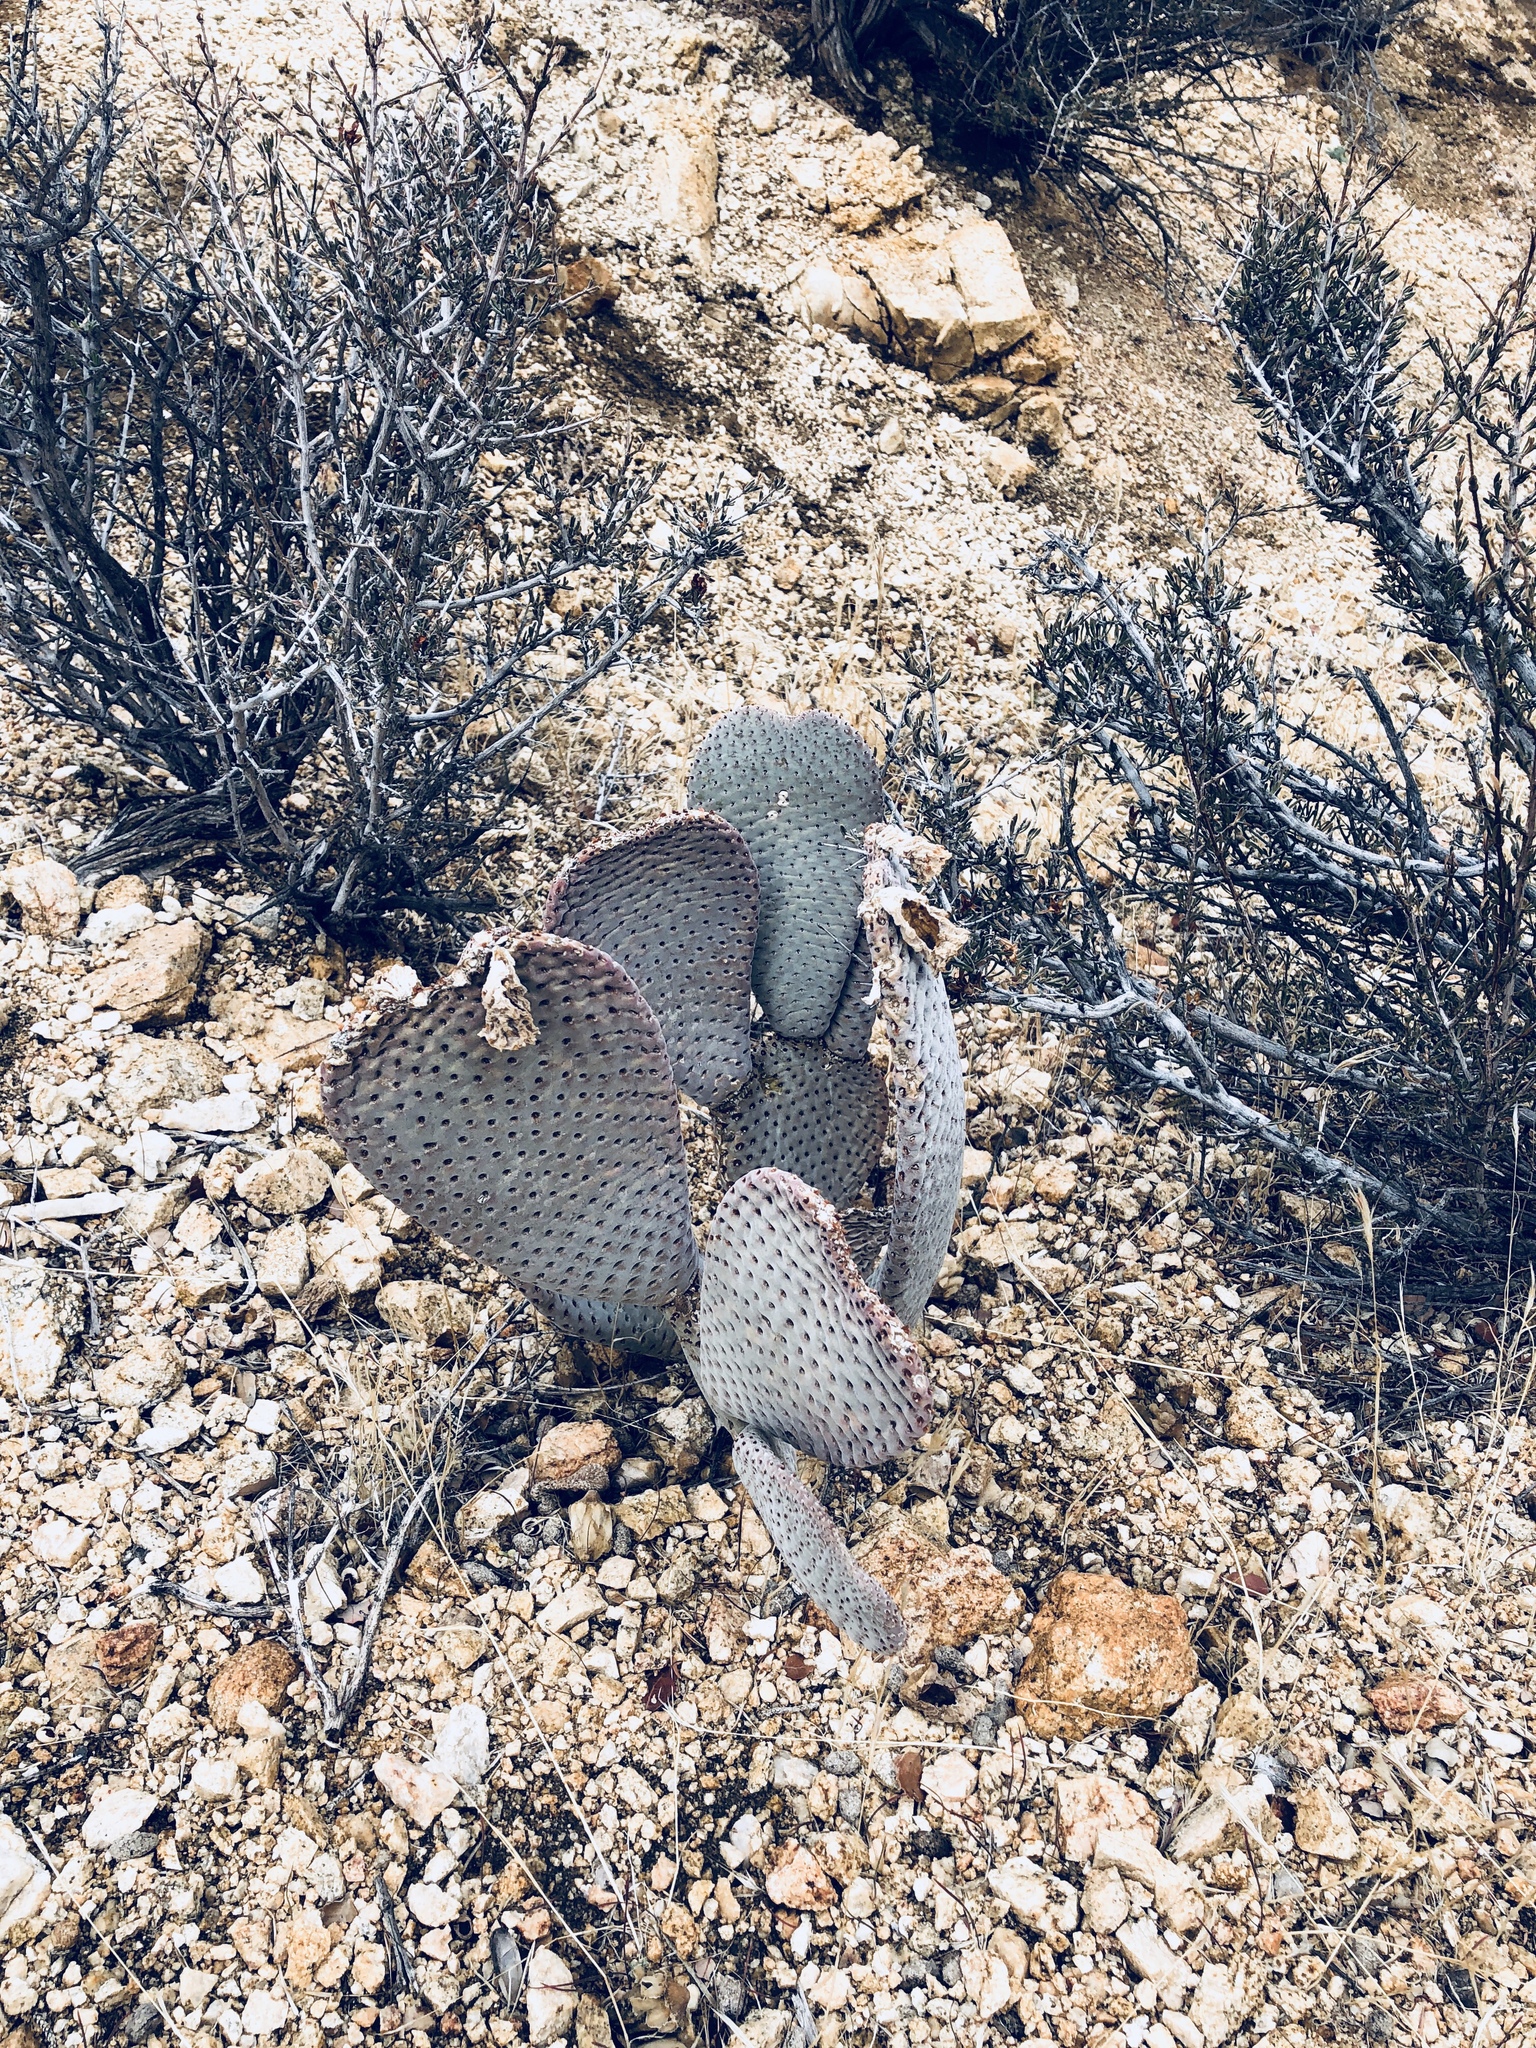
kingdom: Plantae
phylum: Tracheophyta
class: Magnoliopsida
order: Caryophyllales
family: Cactaceae
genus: Opuntia
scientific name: Opuntia basilaris
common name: Beavertail prickly-pear
